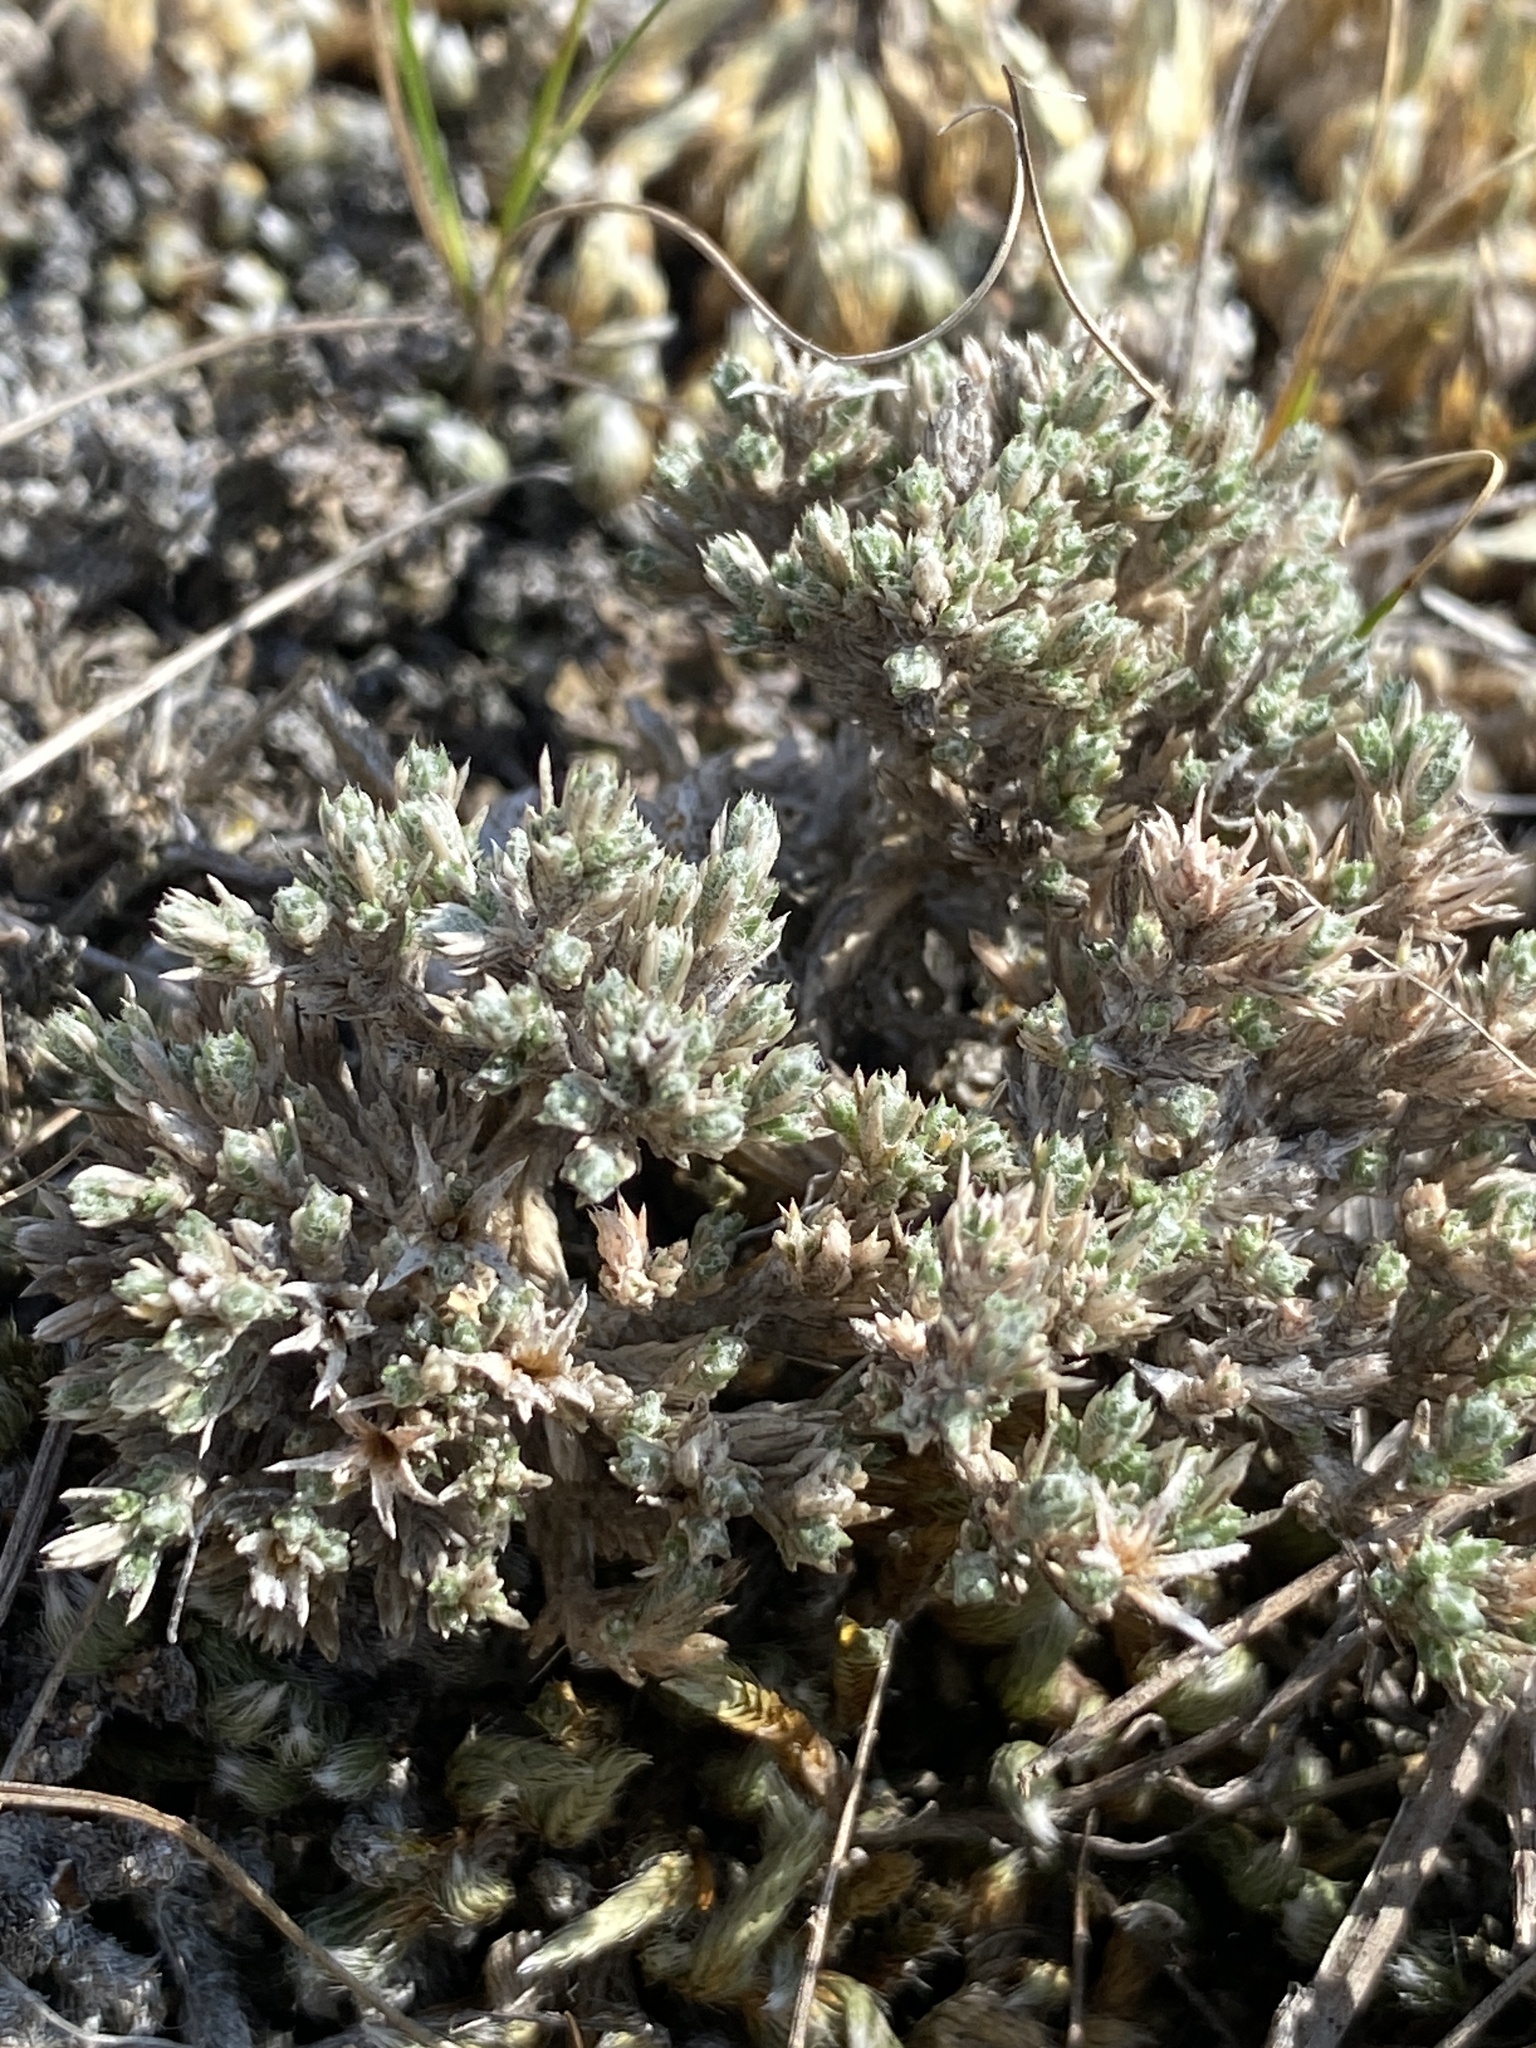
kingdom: Plantae
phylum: Tracheophyta
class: Magnoliopsida
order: Ericales
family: Polemoniaceae
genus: Phlox
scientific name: Phlox hoodii
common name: Moss phlox
